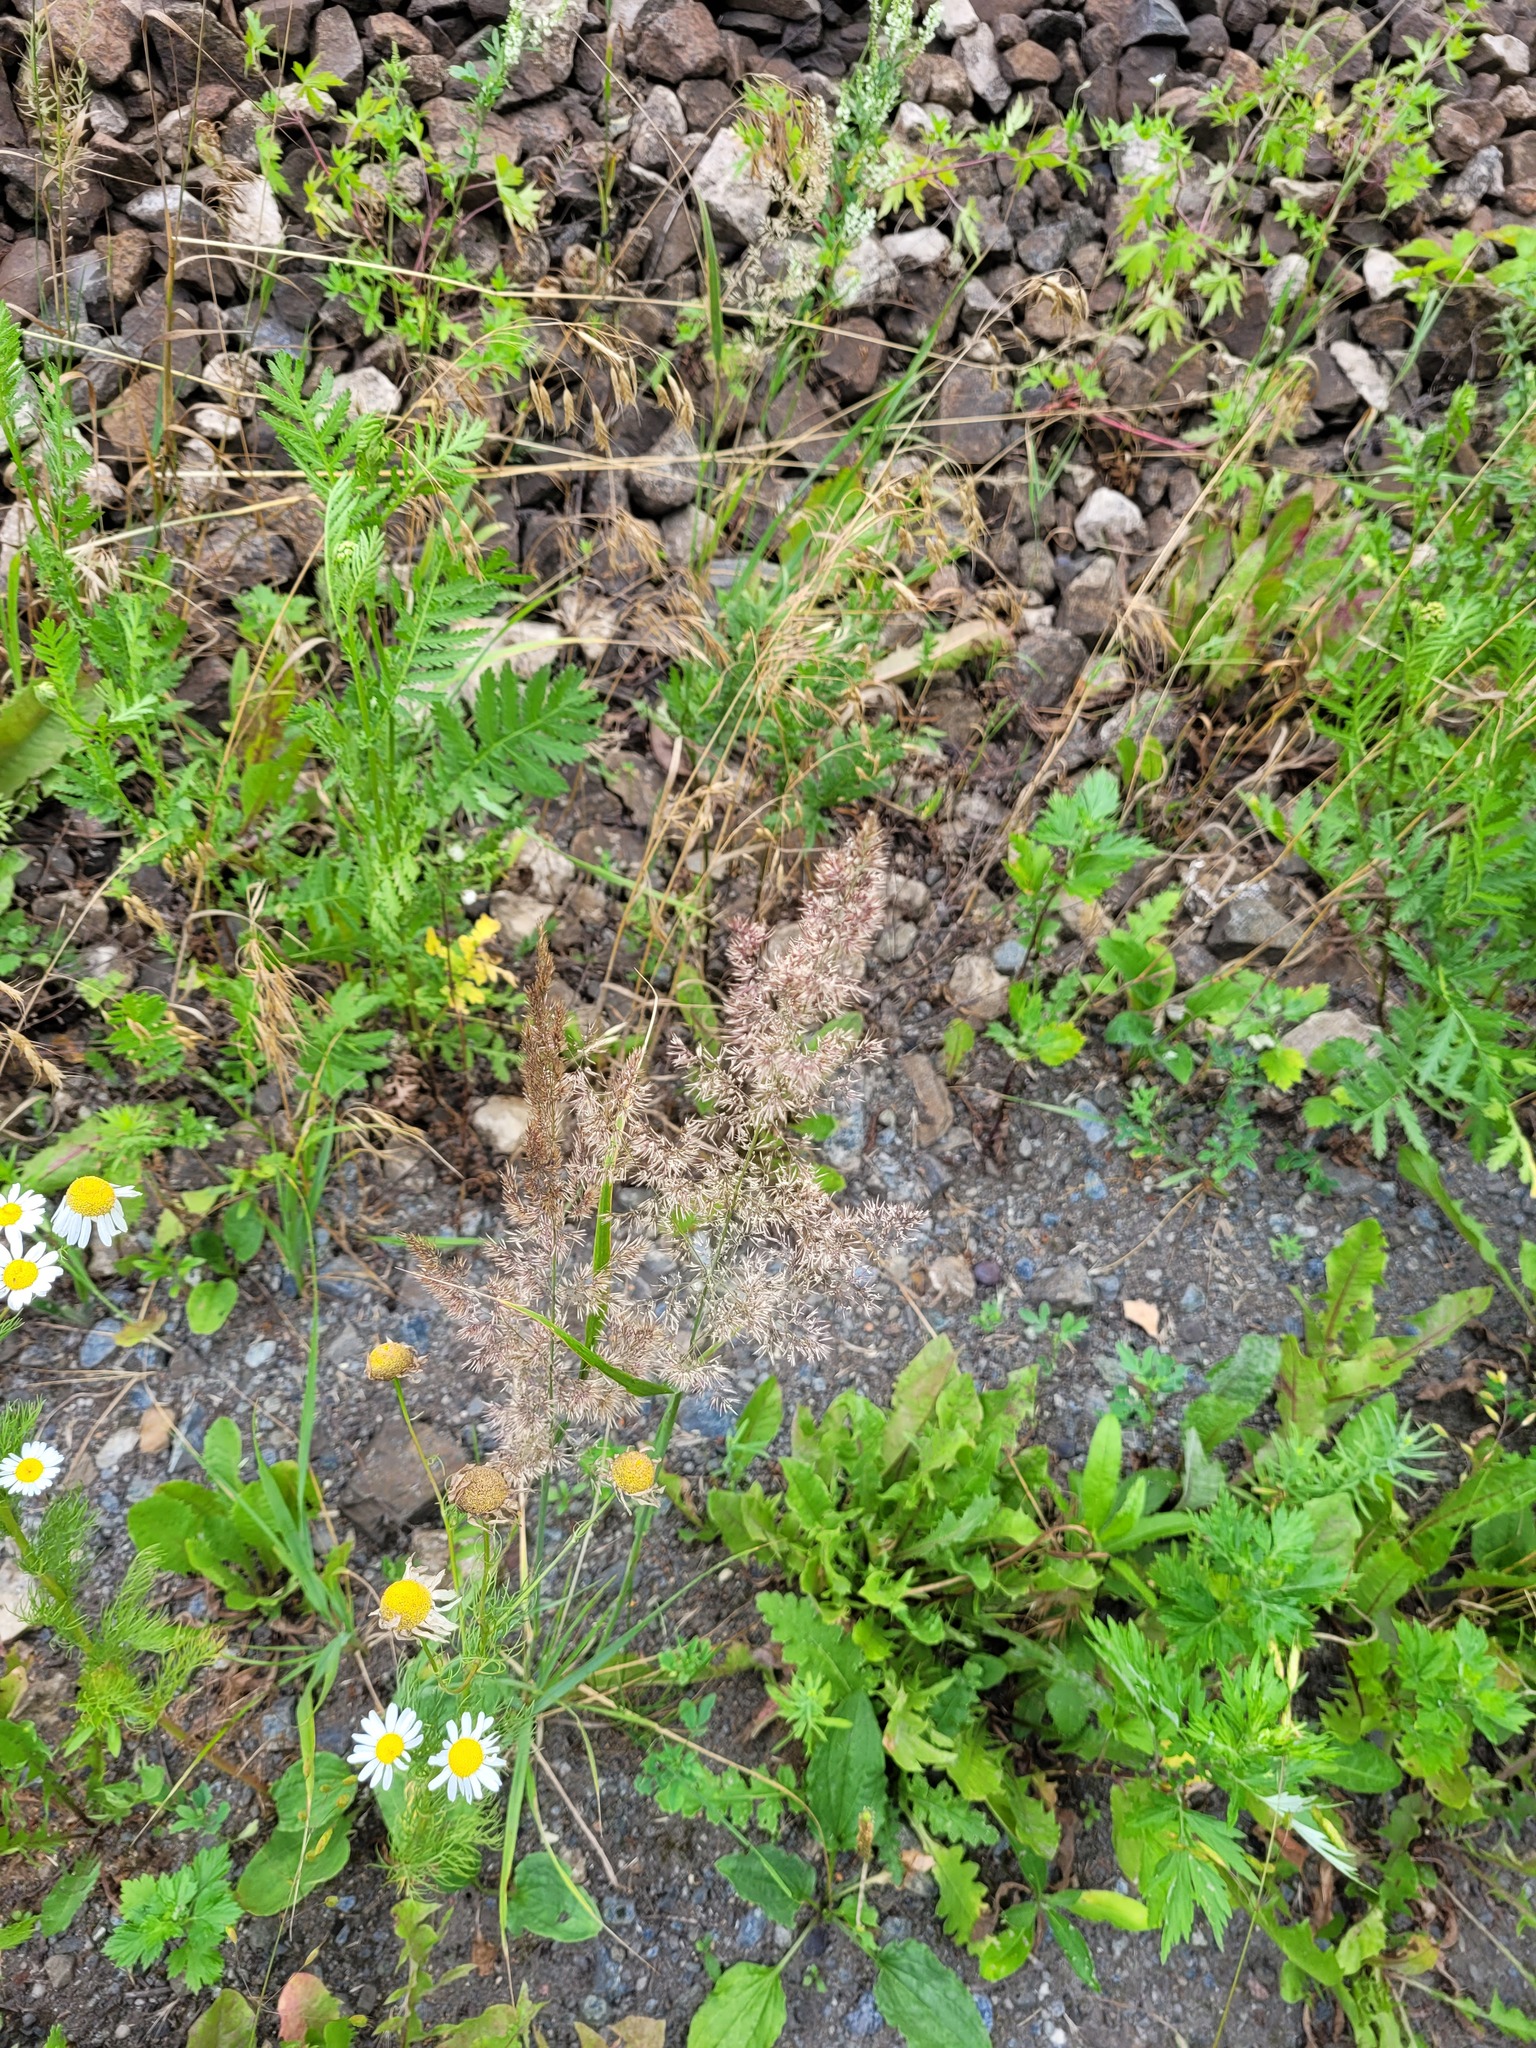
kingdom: Plantae
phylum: Tracheophyta
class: Liliopsida
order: Poales
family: Poaceae
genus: Calamagrostis
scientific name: Calamagrostis epigejos
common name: Wood small-reed
